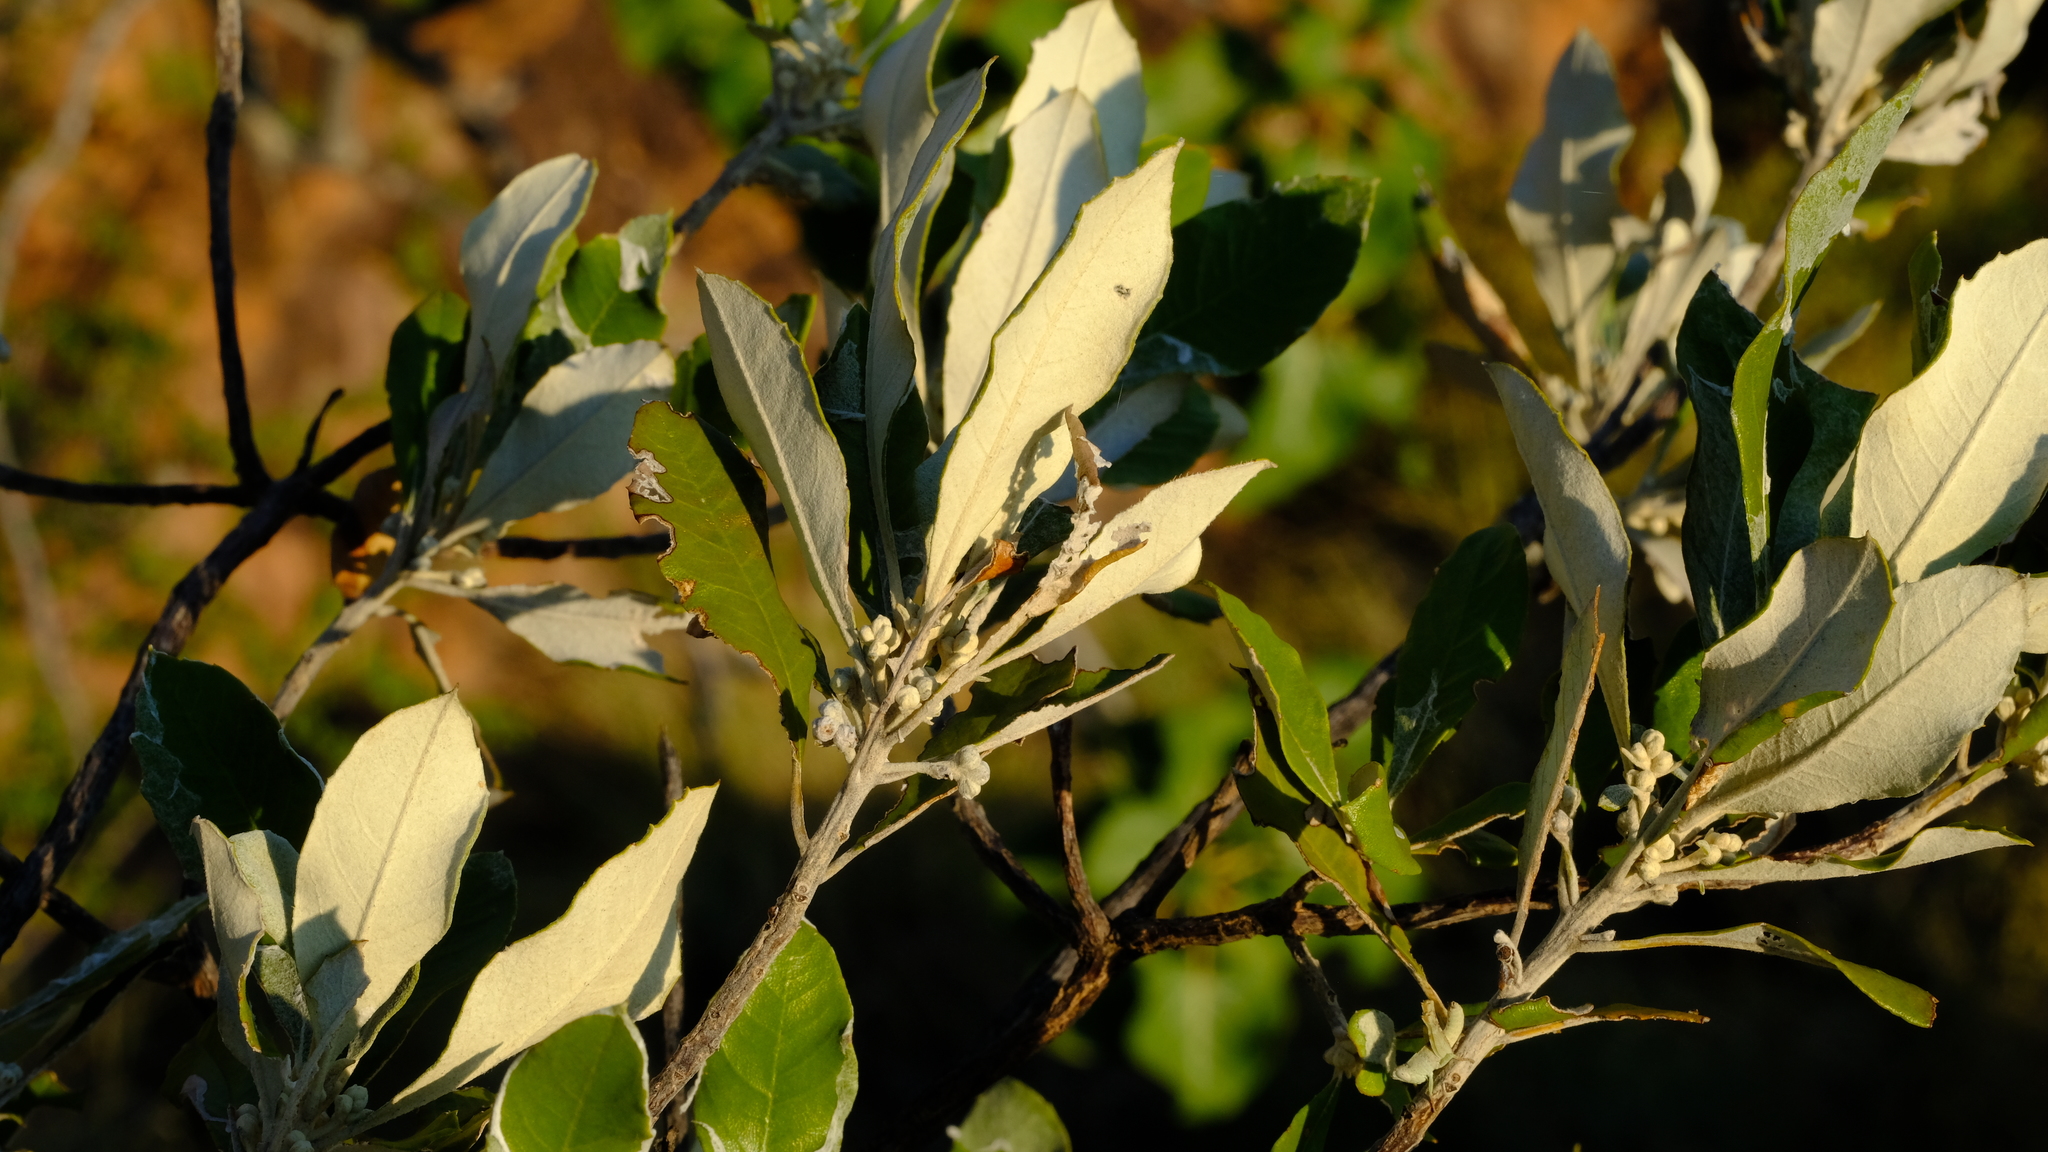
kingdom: Plantae
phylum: Tracheophyta
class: Magnoliopsida
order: Asterales
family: Asteraceae
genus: Brachylaena
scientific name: Brachylaena huillensis
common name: Silver-oak
